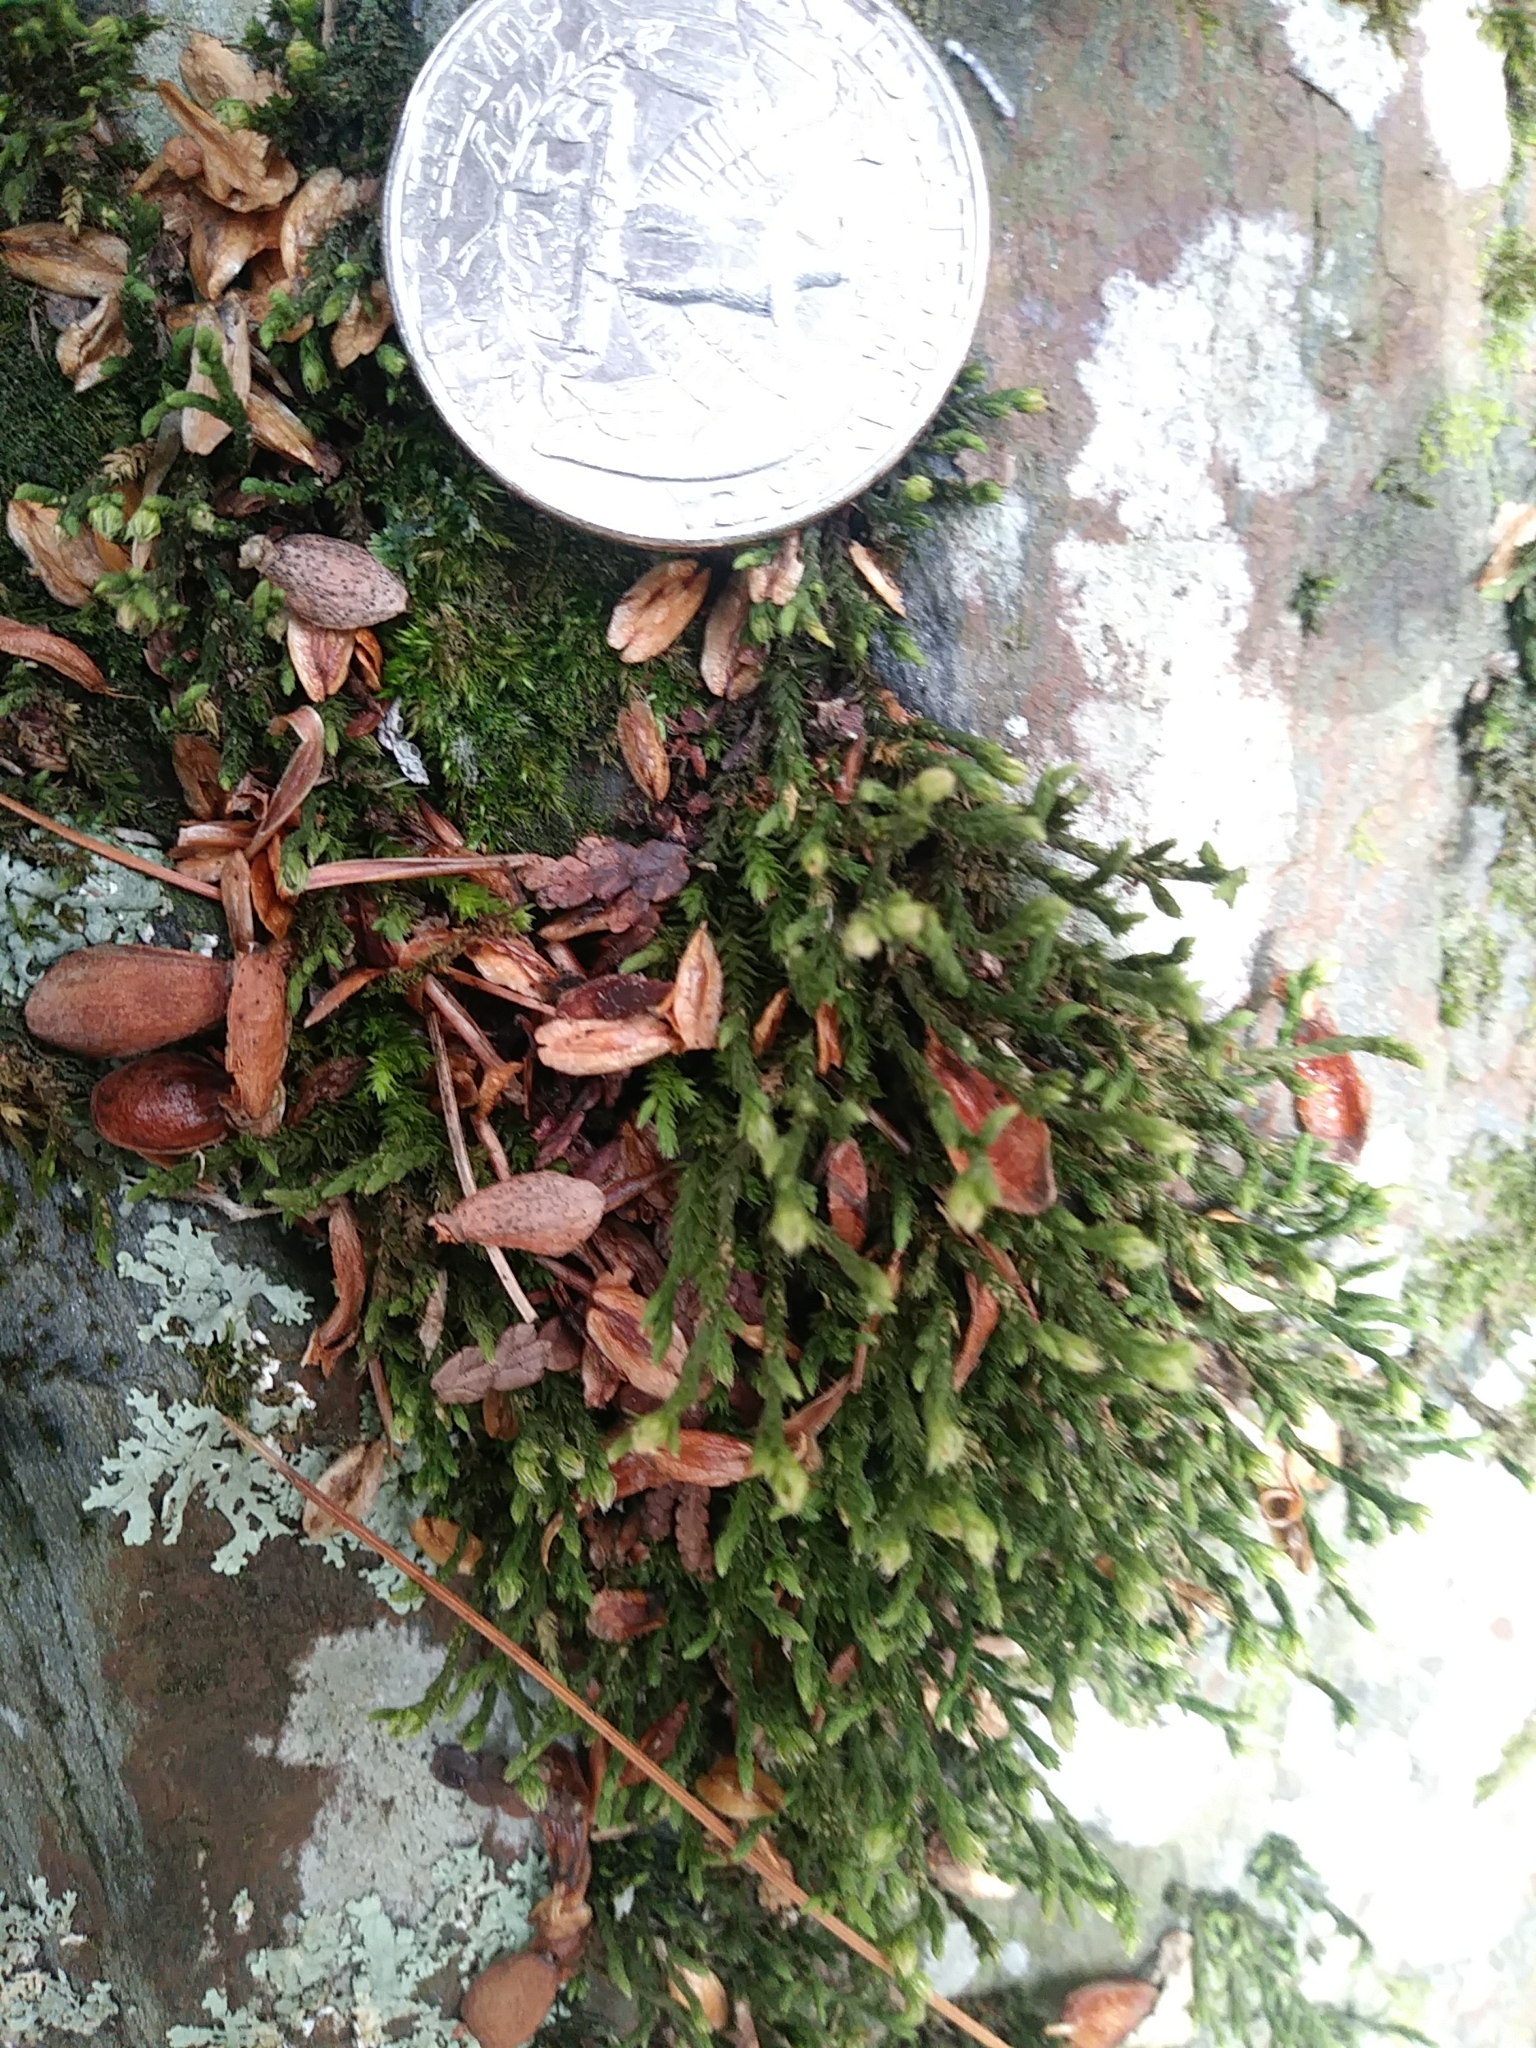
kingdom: Plantae
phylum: Bryophyta
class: Bryopsida
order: Hedwigiales
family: Hedwigiaceae
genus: Hedwigia
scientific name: Hedwigia ciliata
